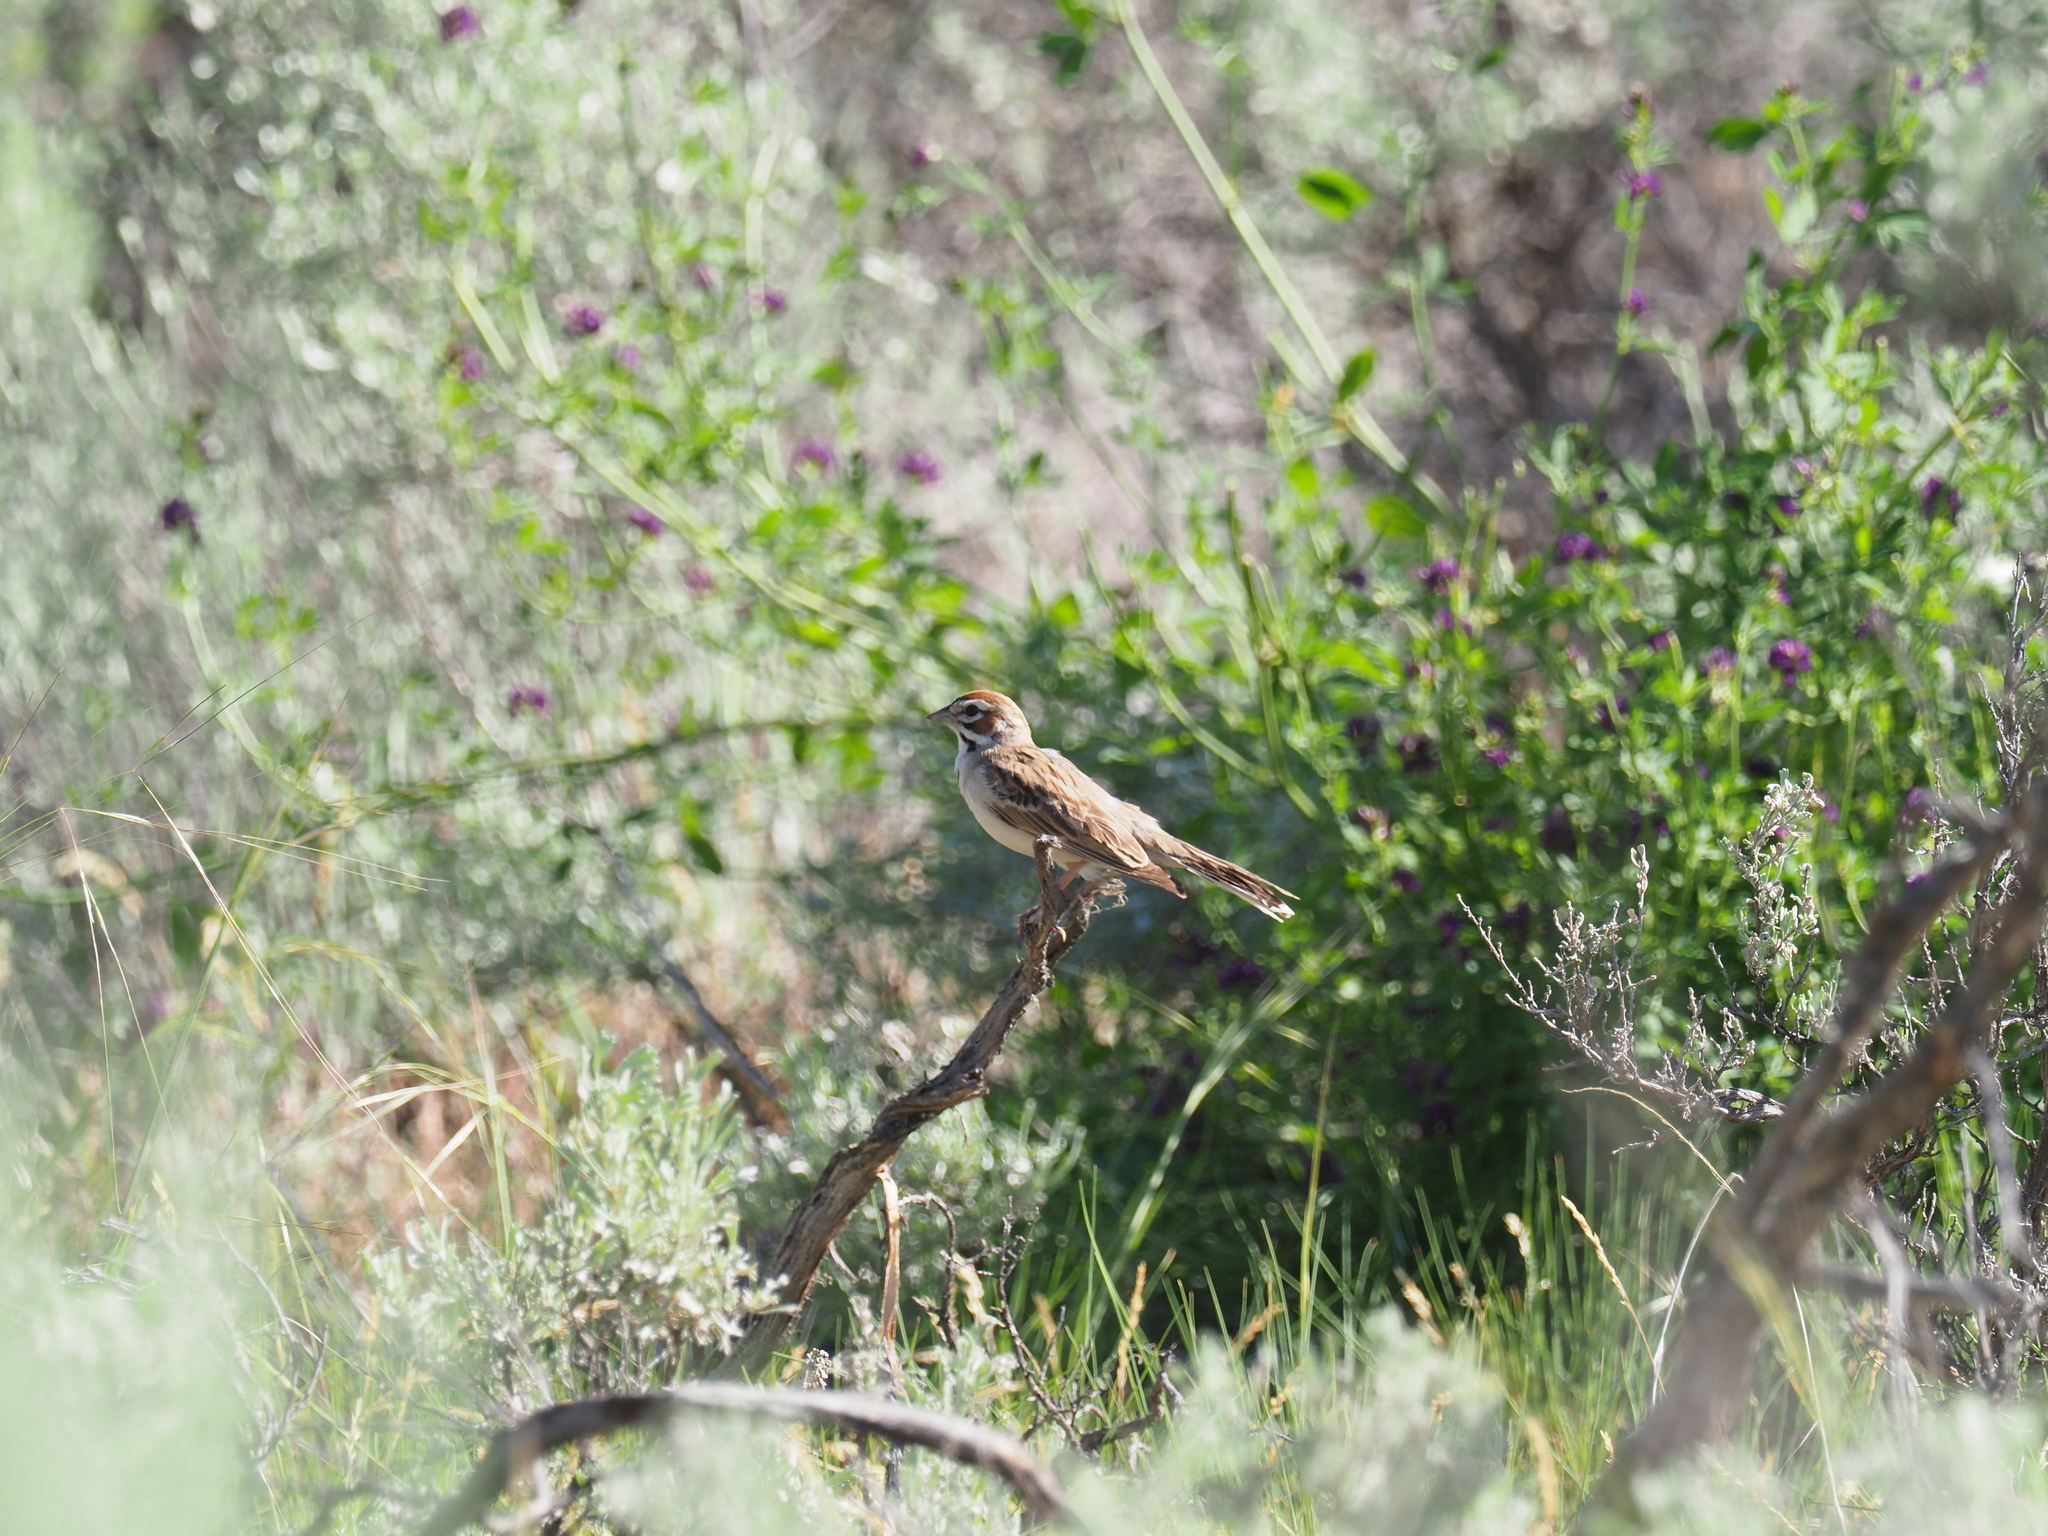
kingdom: Animalia
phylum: Chordata
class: Aves
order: Passeriformes
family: Passerellidae
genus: Chondestes
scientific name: Chondestes grammacus
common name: Lark sparrow
